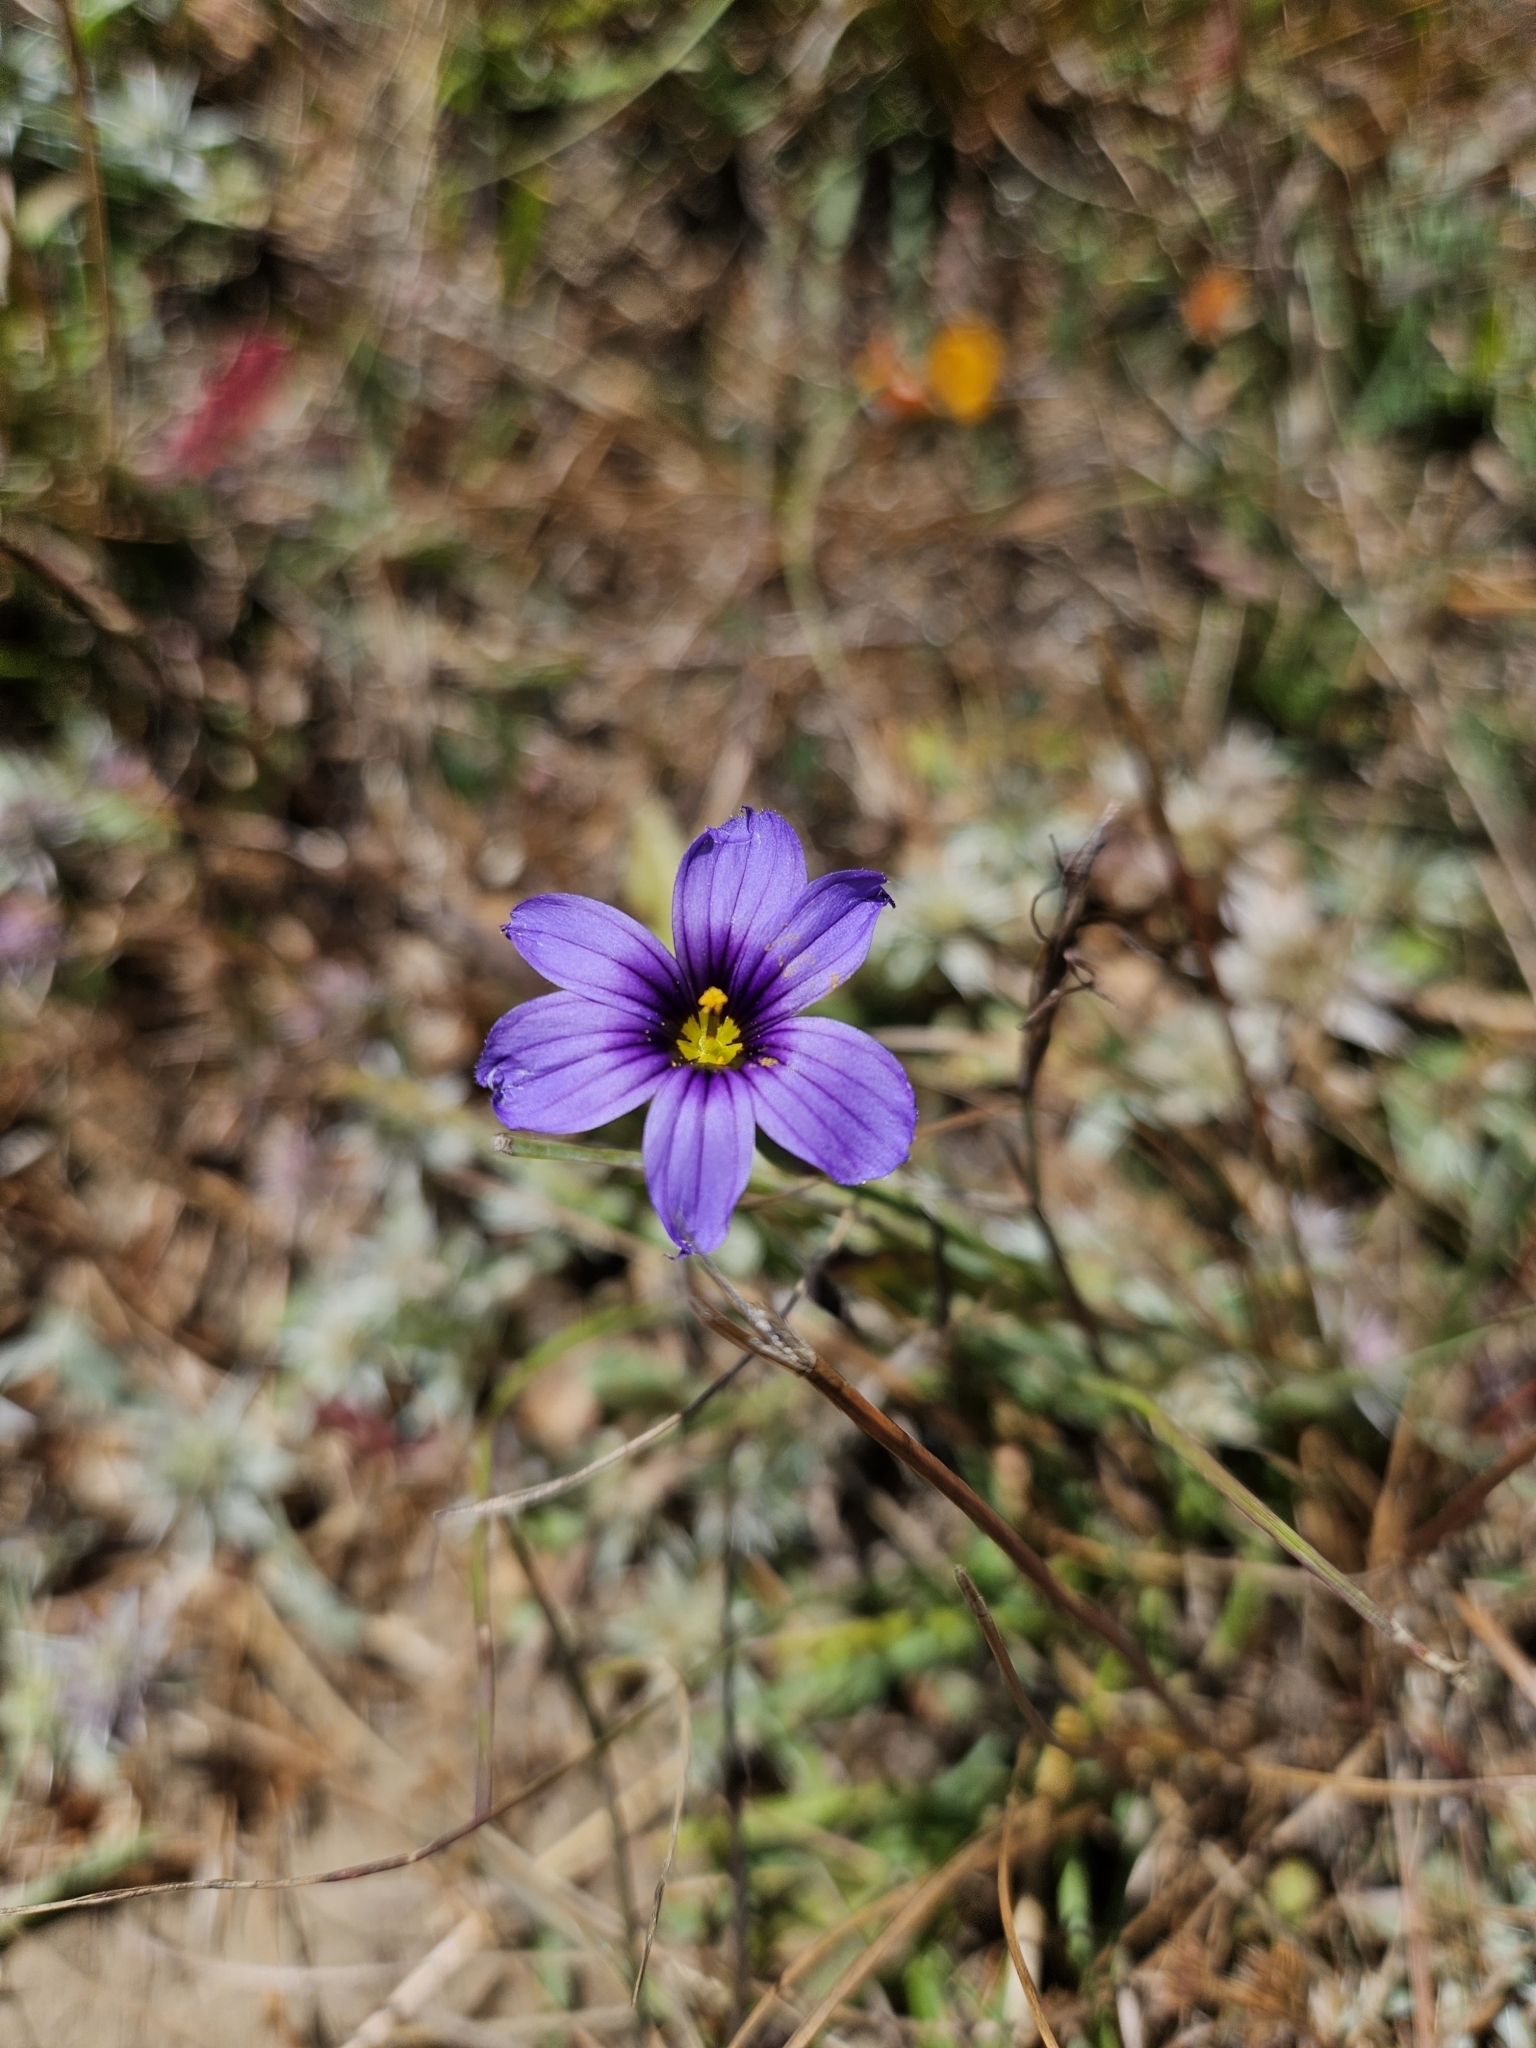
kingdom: Plantae
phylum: Tracheophyta
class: Liliopsida
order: Asparagales
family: Iridaceae
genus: Sisyrinchium
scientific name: Sisyrinchium bellum
